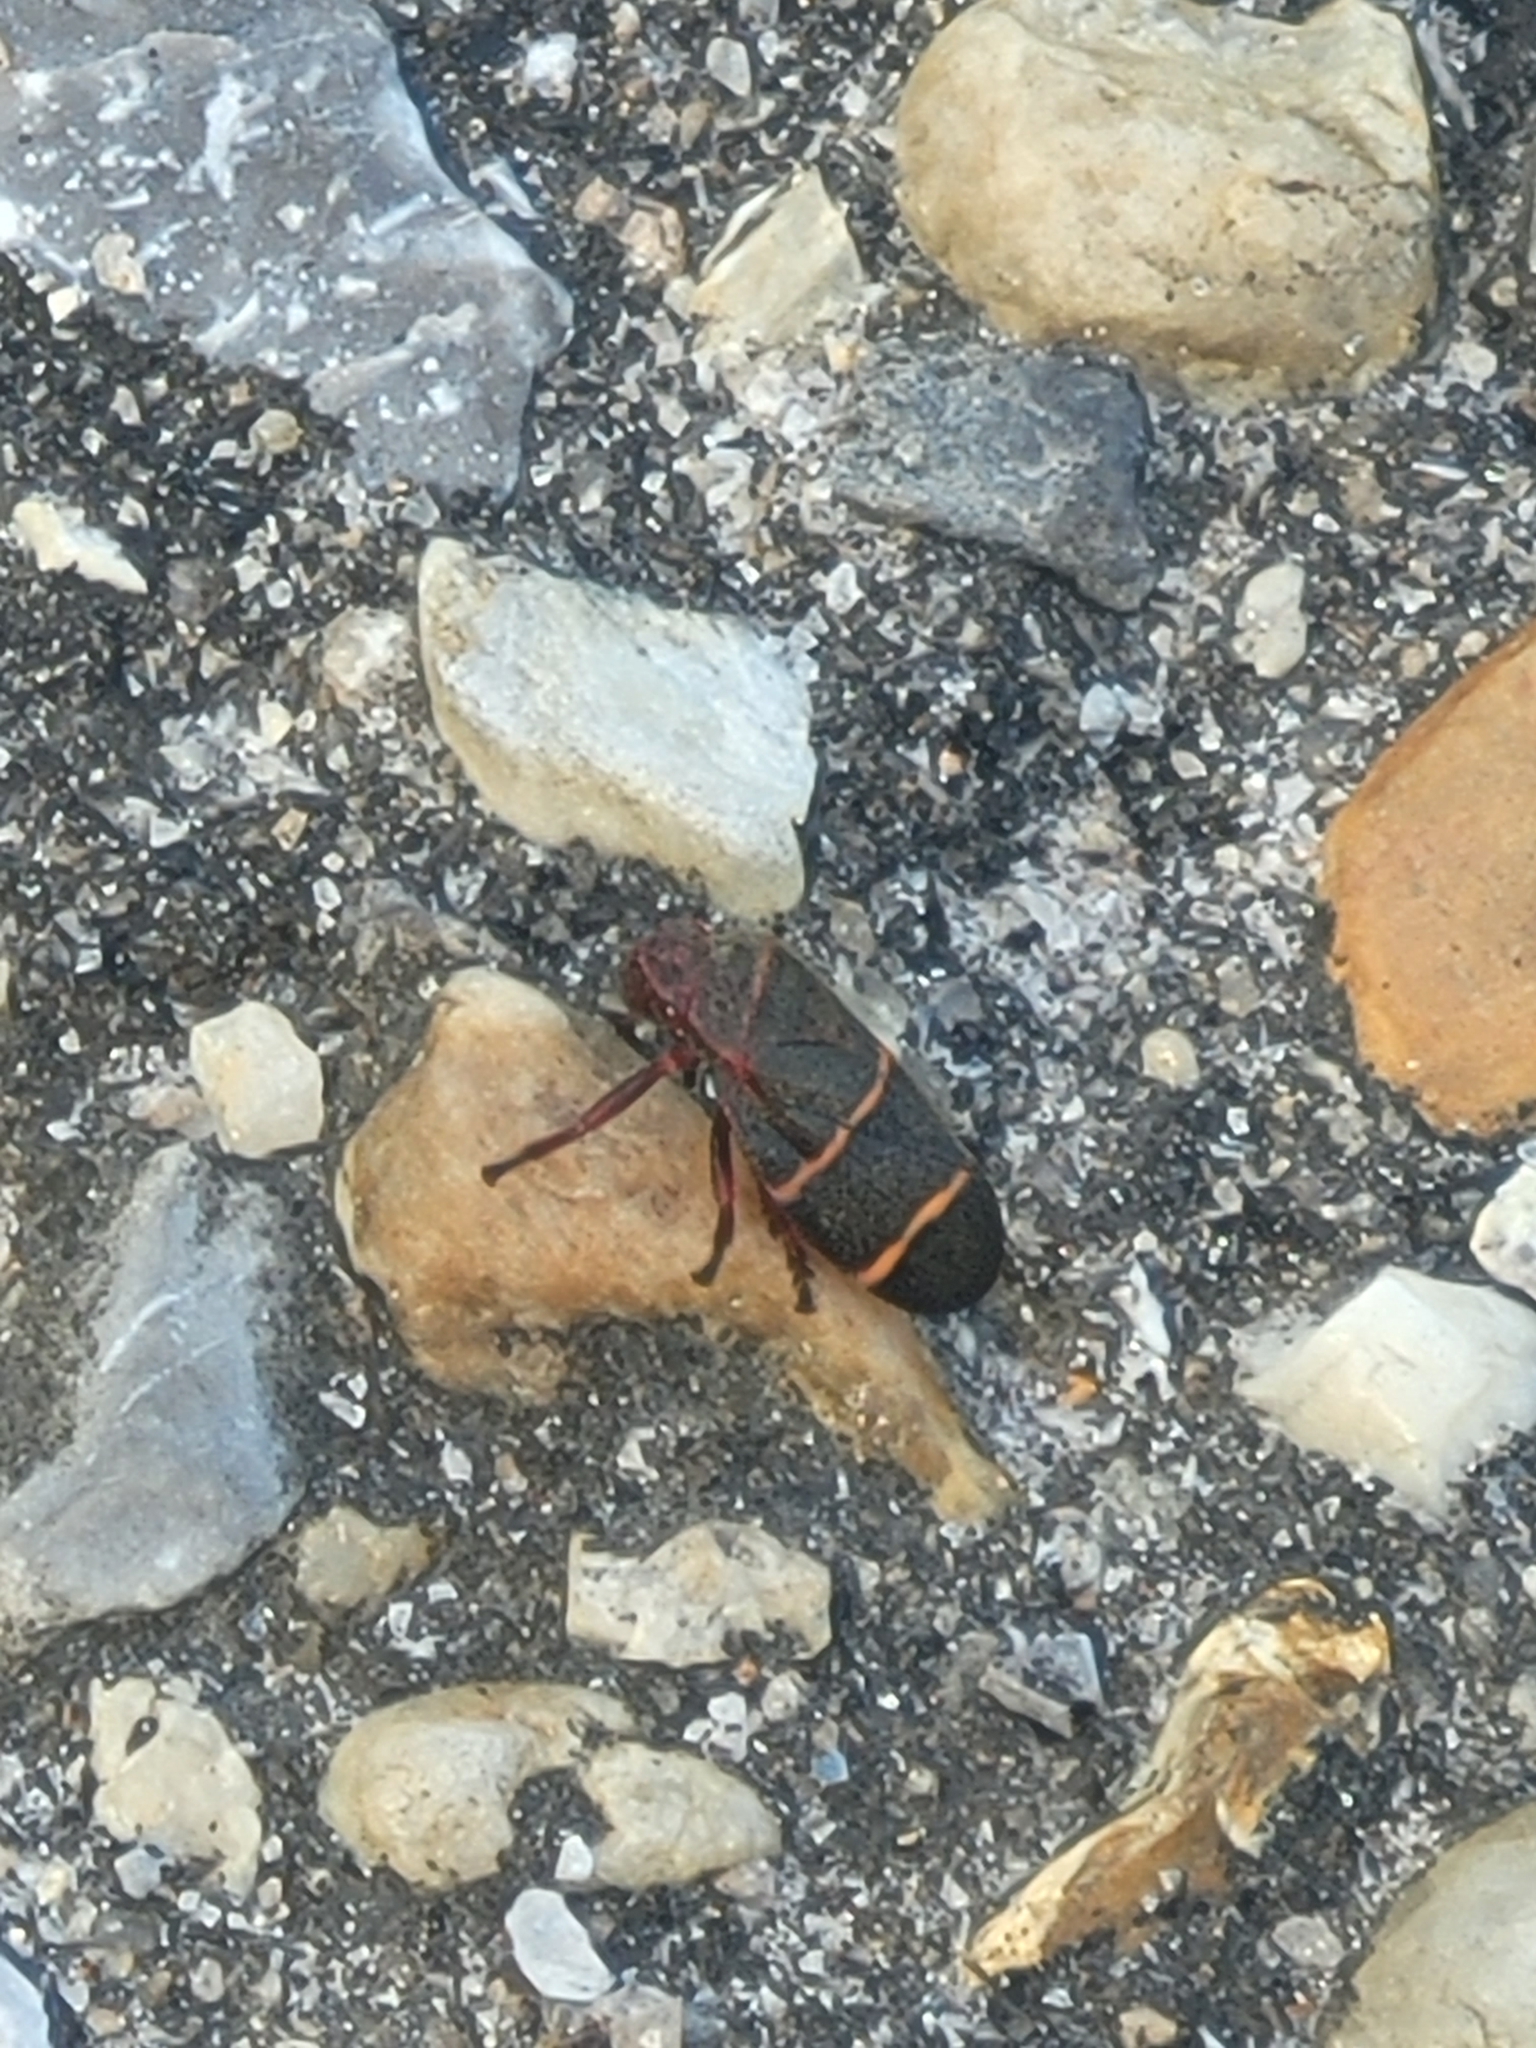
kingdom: Animalia
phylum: Arthropoda
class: Insecta
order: Hemiptera
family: Cercopidae
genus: Prosapia
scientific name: Prosapia bicincta
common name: Twolined spittlebug
